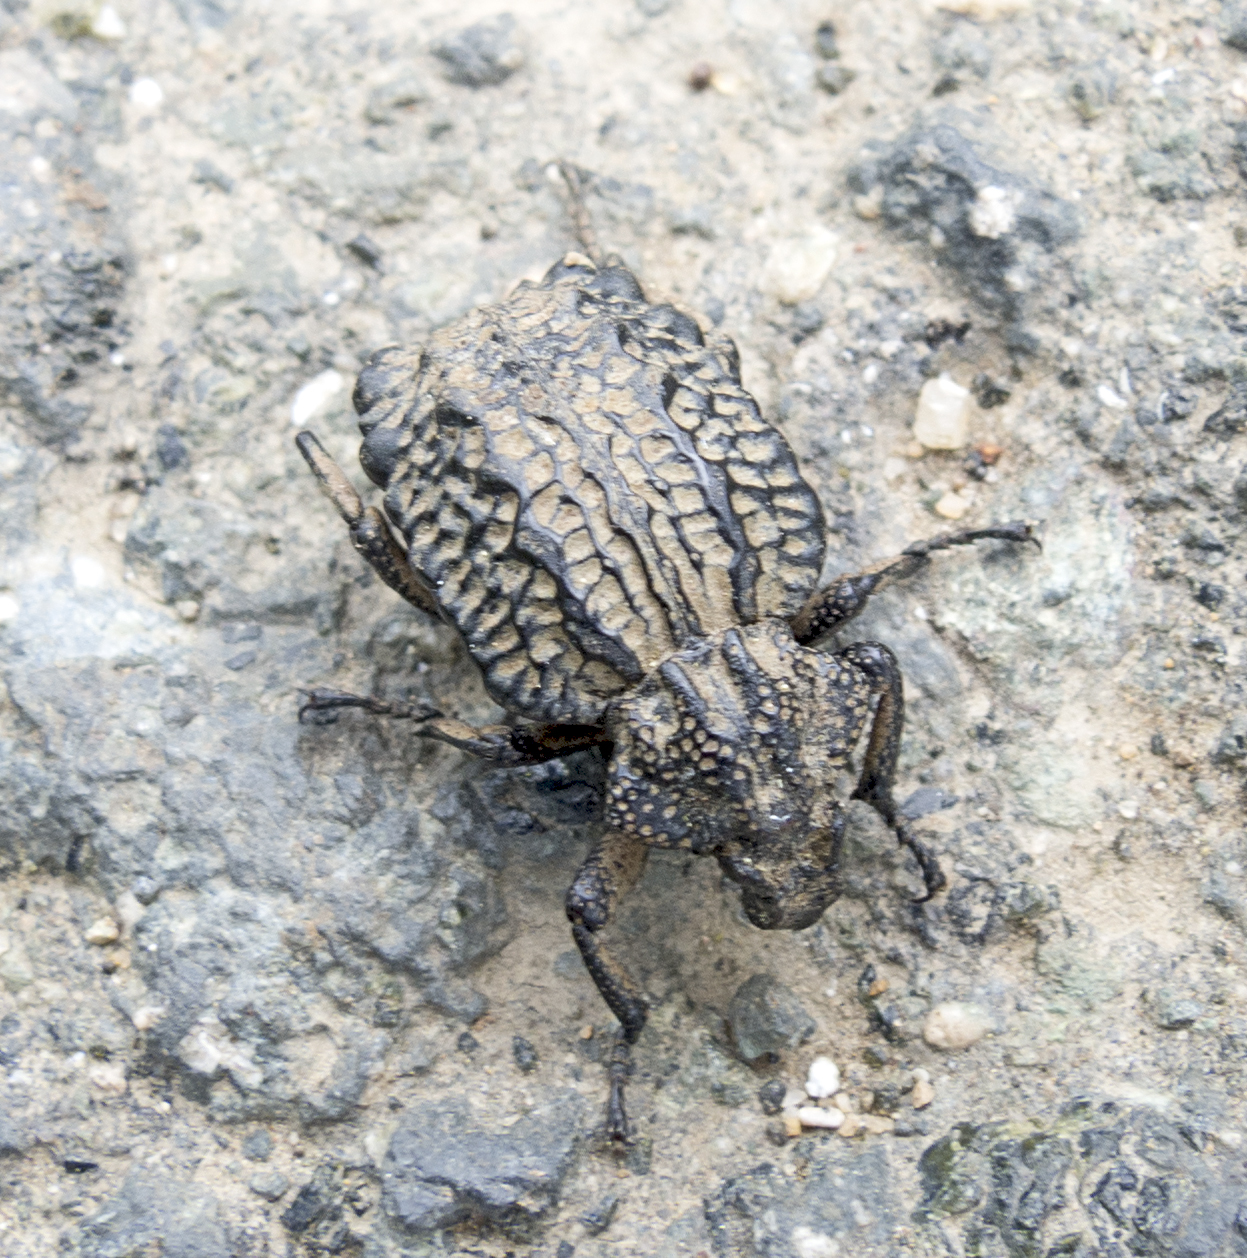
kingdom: Animalia
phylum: Arthropoda
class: Insecta
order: Coleoptera
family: Brachyceridae
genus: Brachycerus
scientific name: Brachycerus undatus
